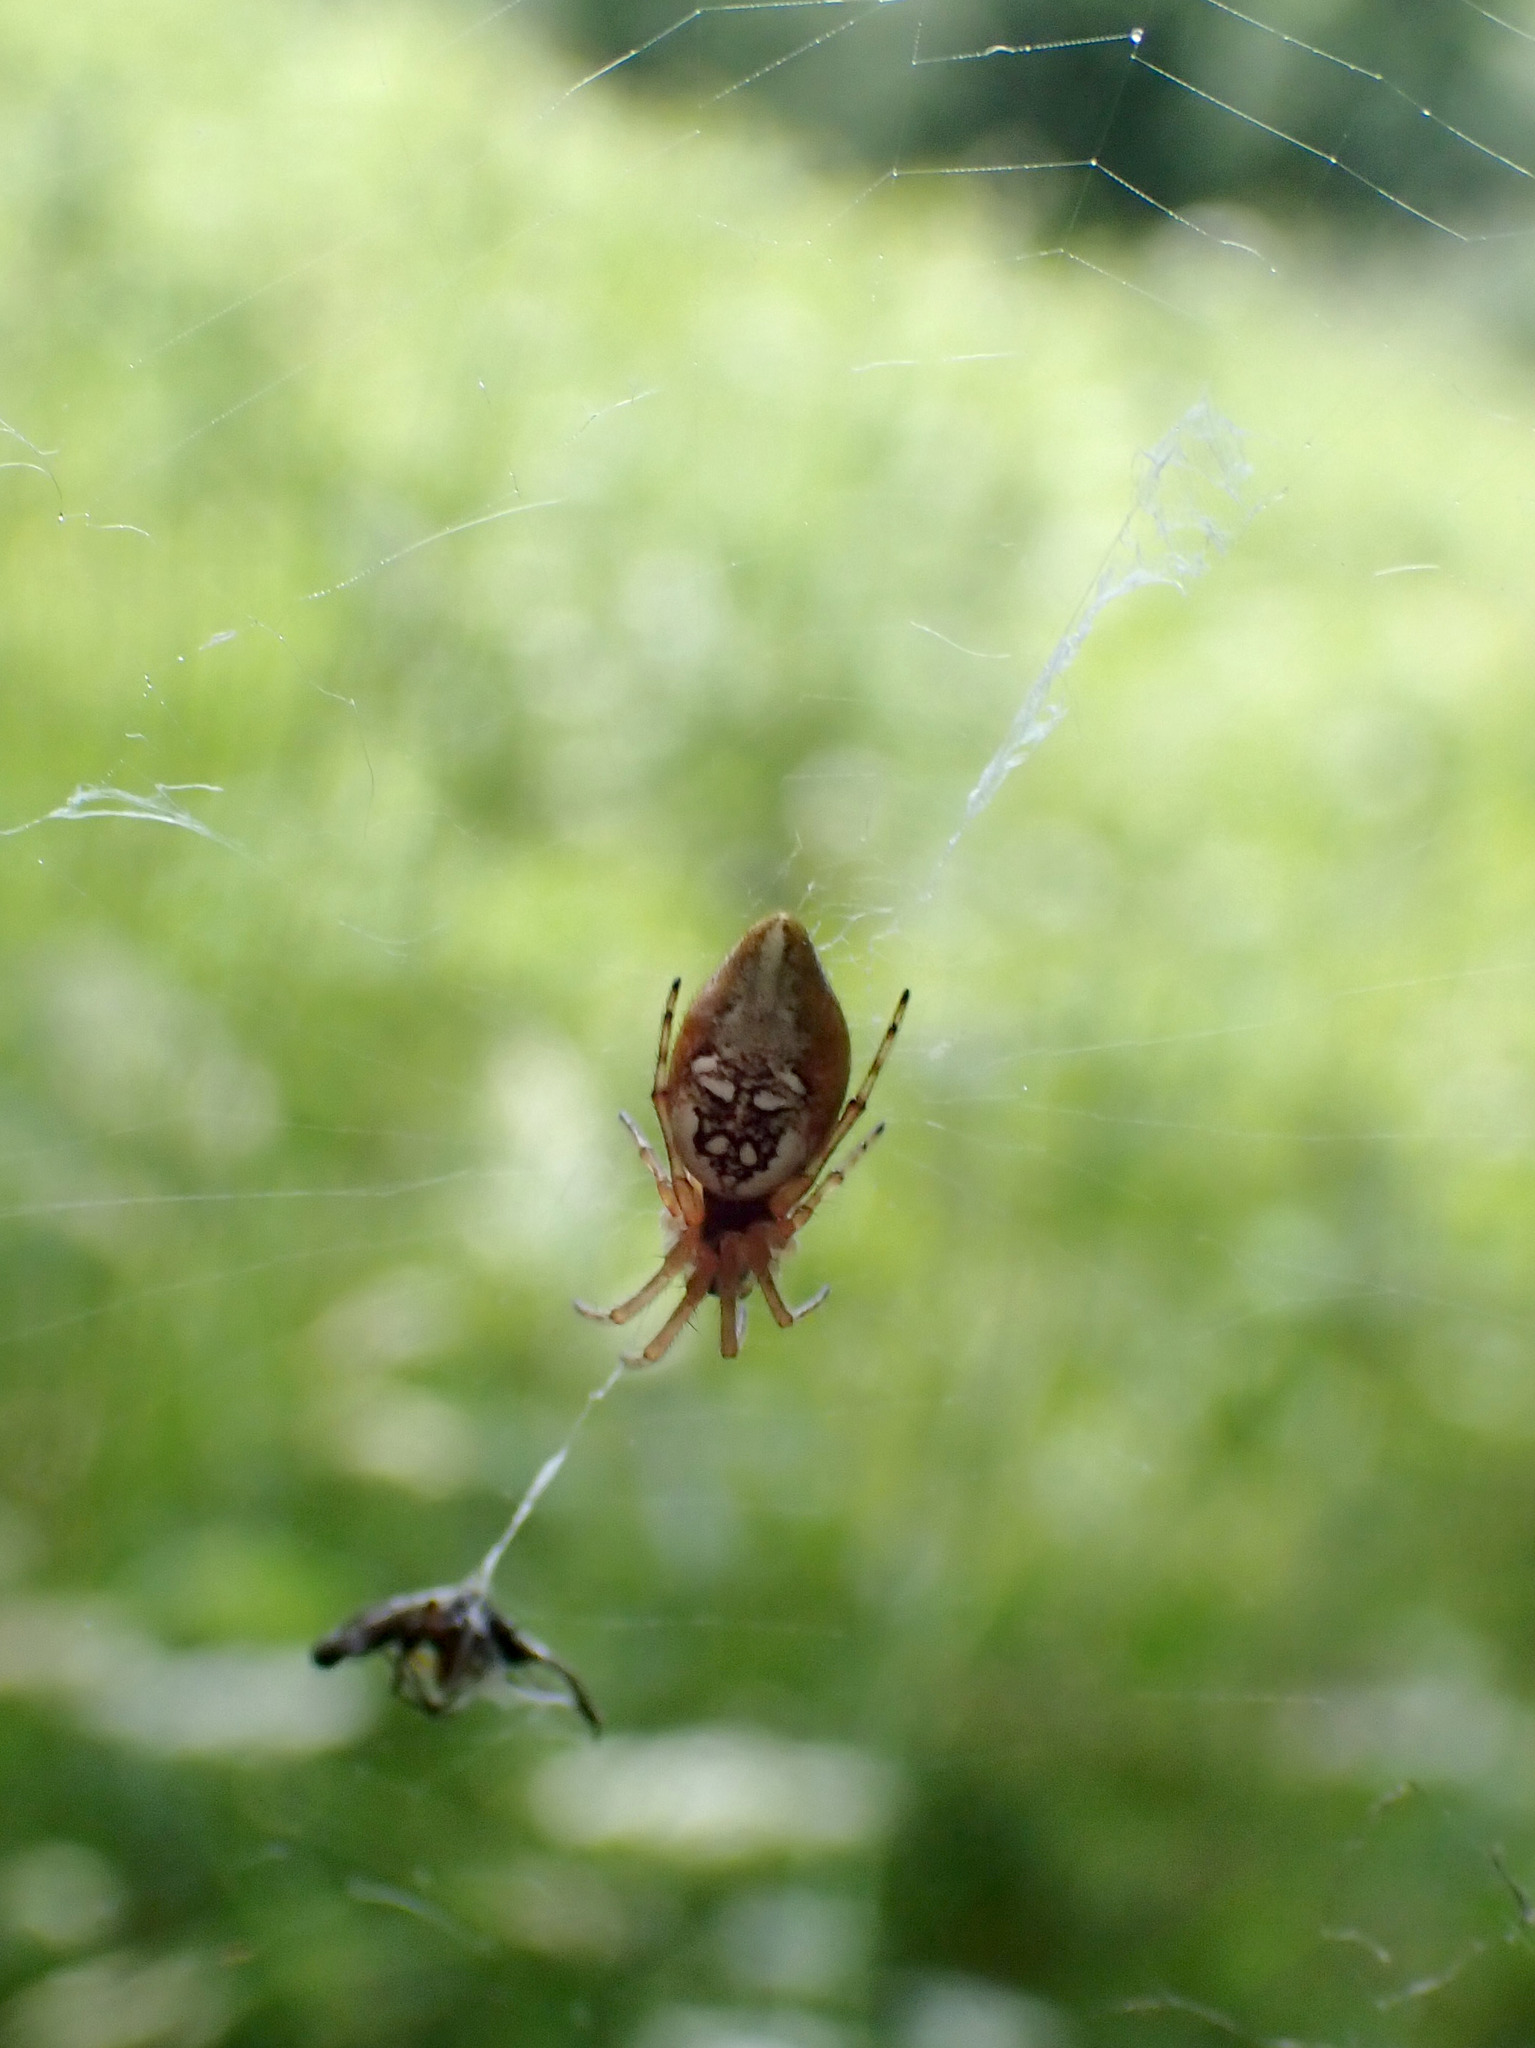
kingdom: Animalia
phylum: Arthropoda
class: Arachnida
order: Araneae
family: Araneidae
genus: Cyclosa
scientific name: Cyclosa conica
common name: Conical trashline orbweaver
